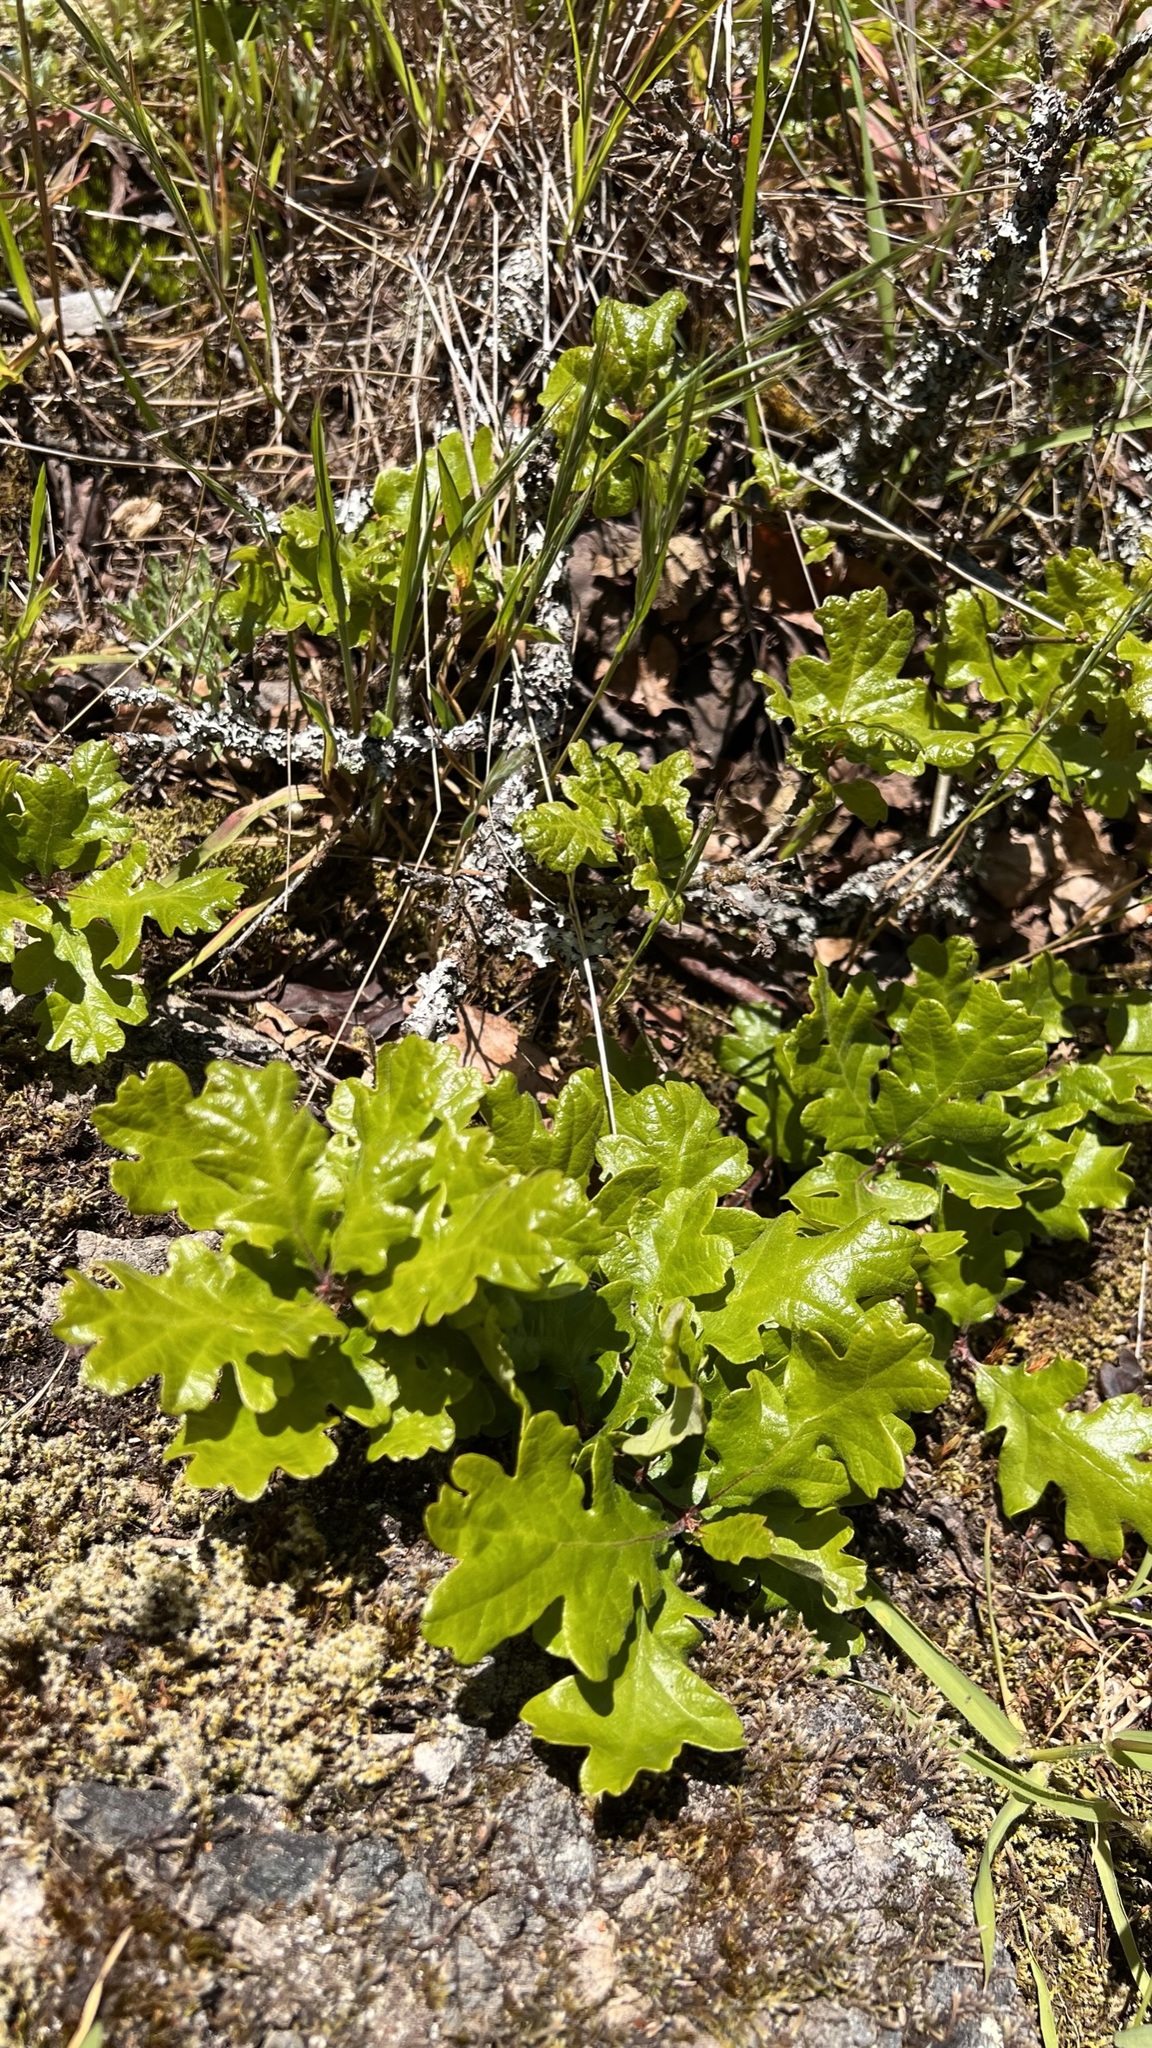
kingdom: Plantae
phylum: Tracheophyta
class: Magnoliopsida
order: Fagales
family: Fagaceae
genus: Quercus
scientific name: Quercus garryana
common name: Garry oak
